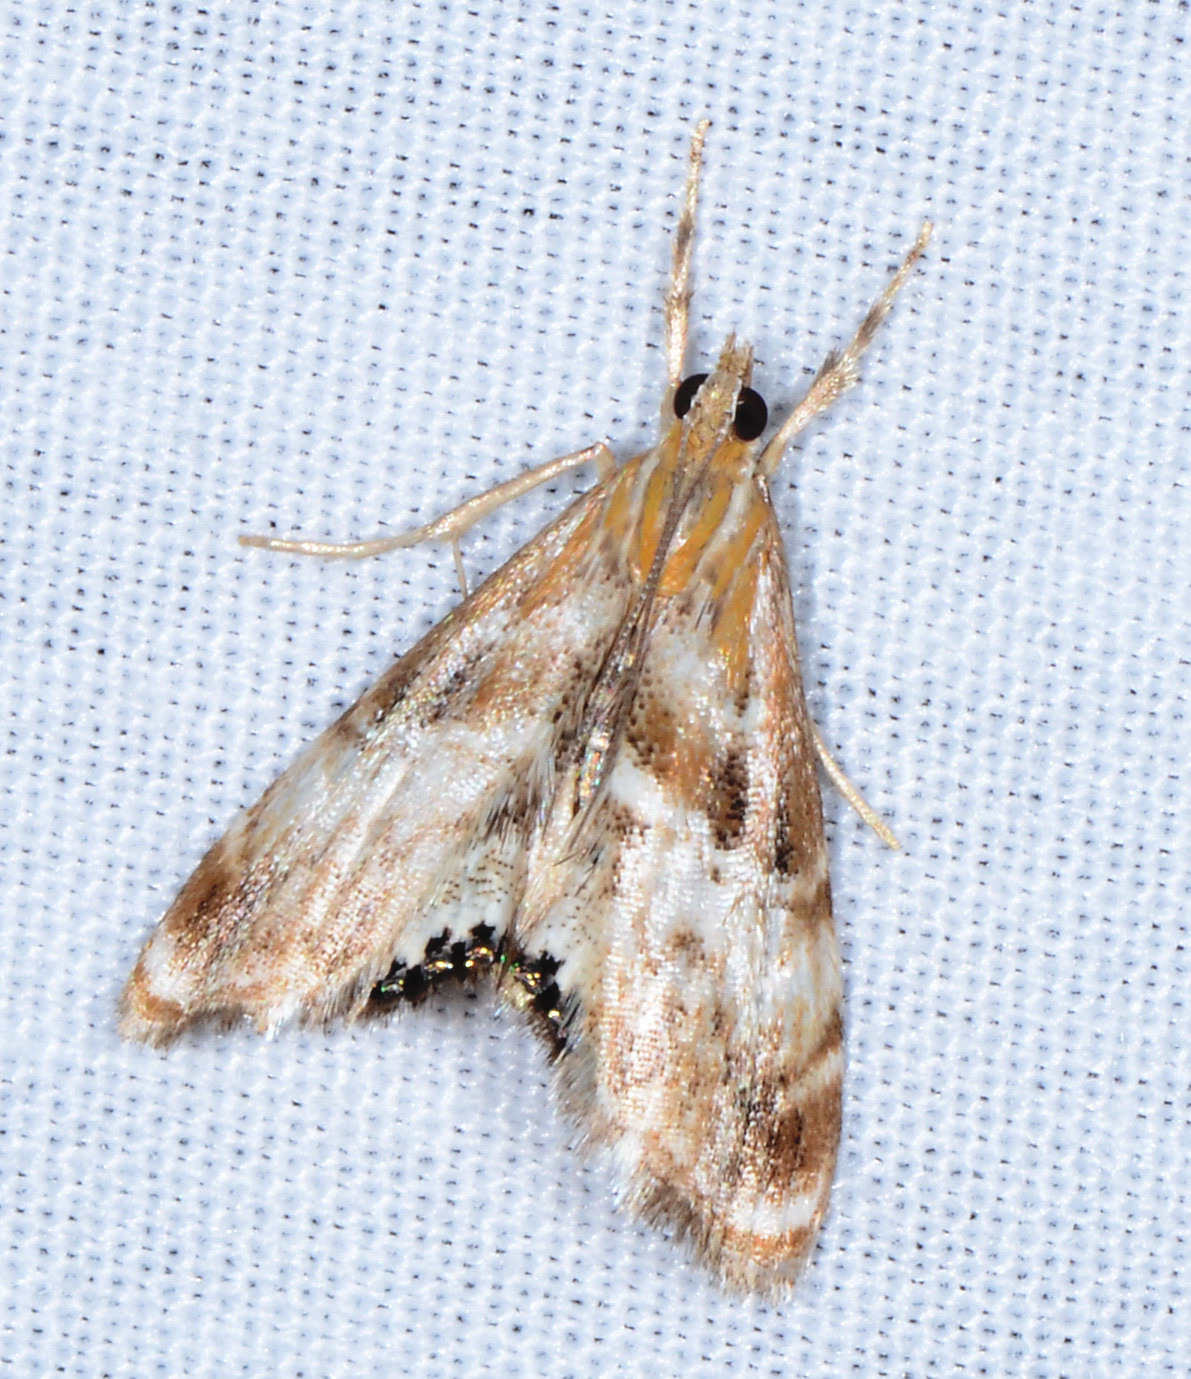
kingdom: Animalia
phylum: Arthropoda
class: Insecta
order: Lepidoptera
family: Crambidae
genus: Dicymolomia
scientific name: Dicymolomia metalliferalis
